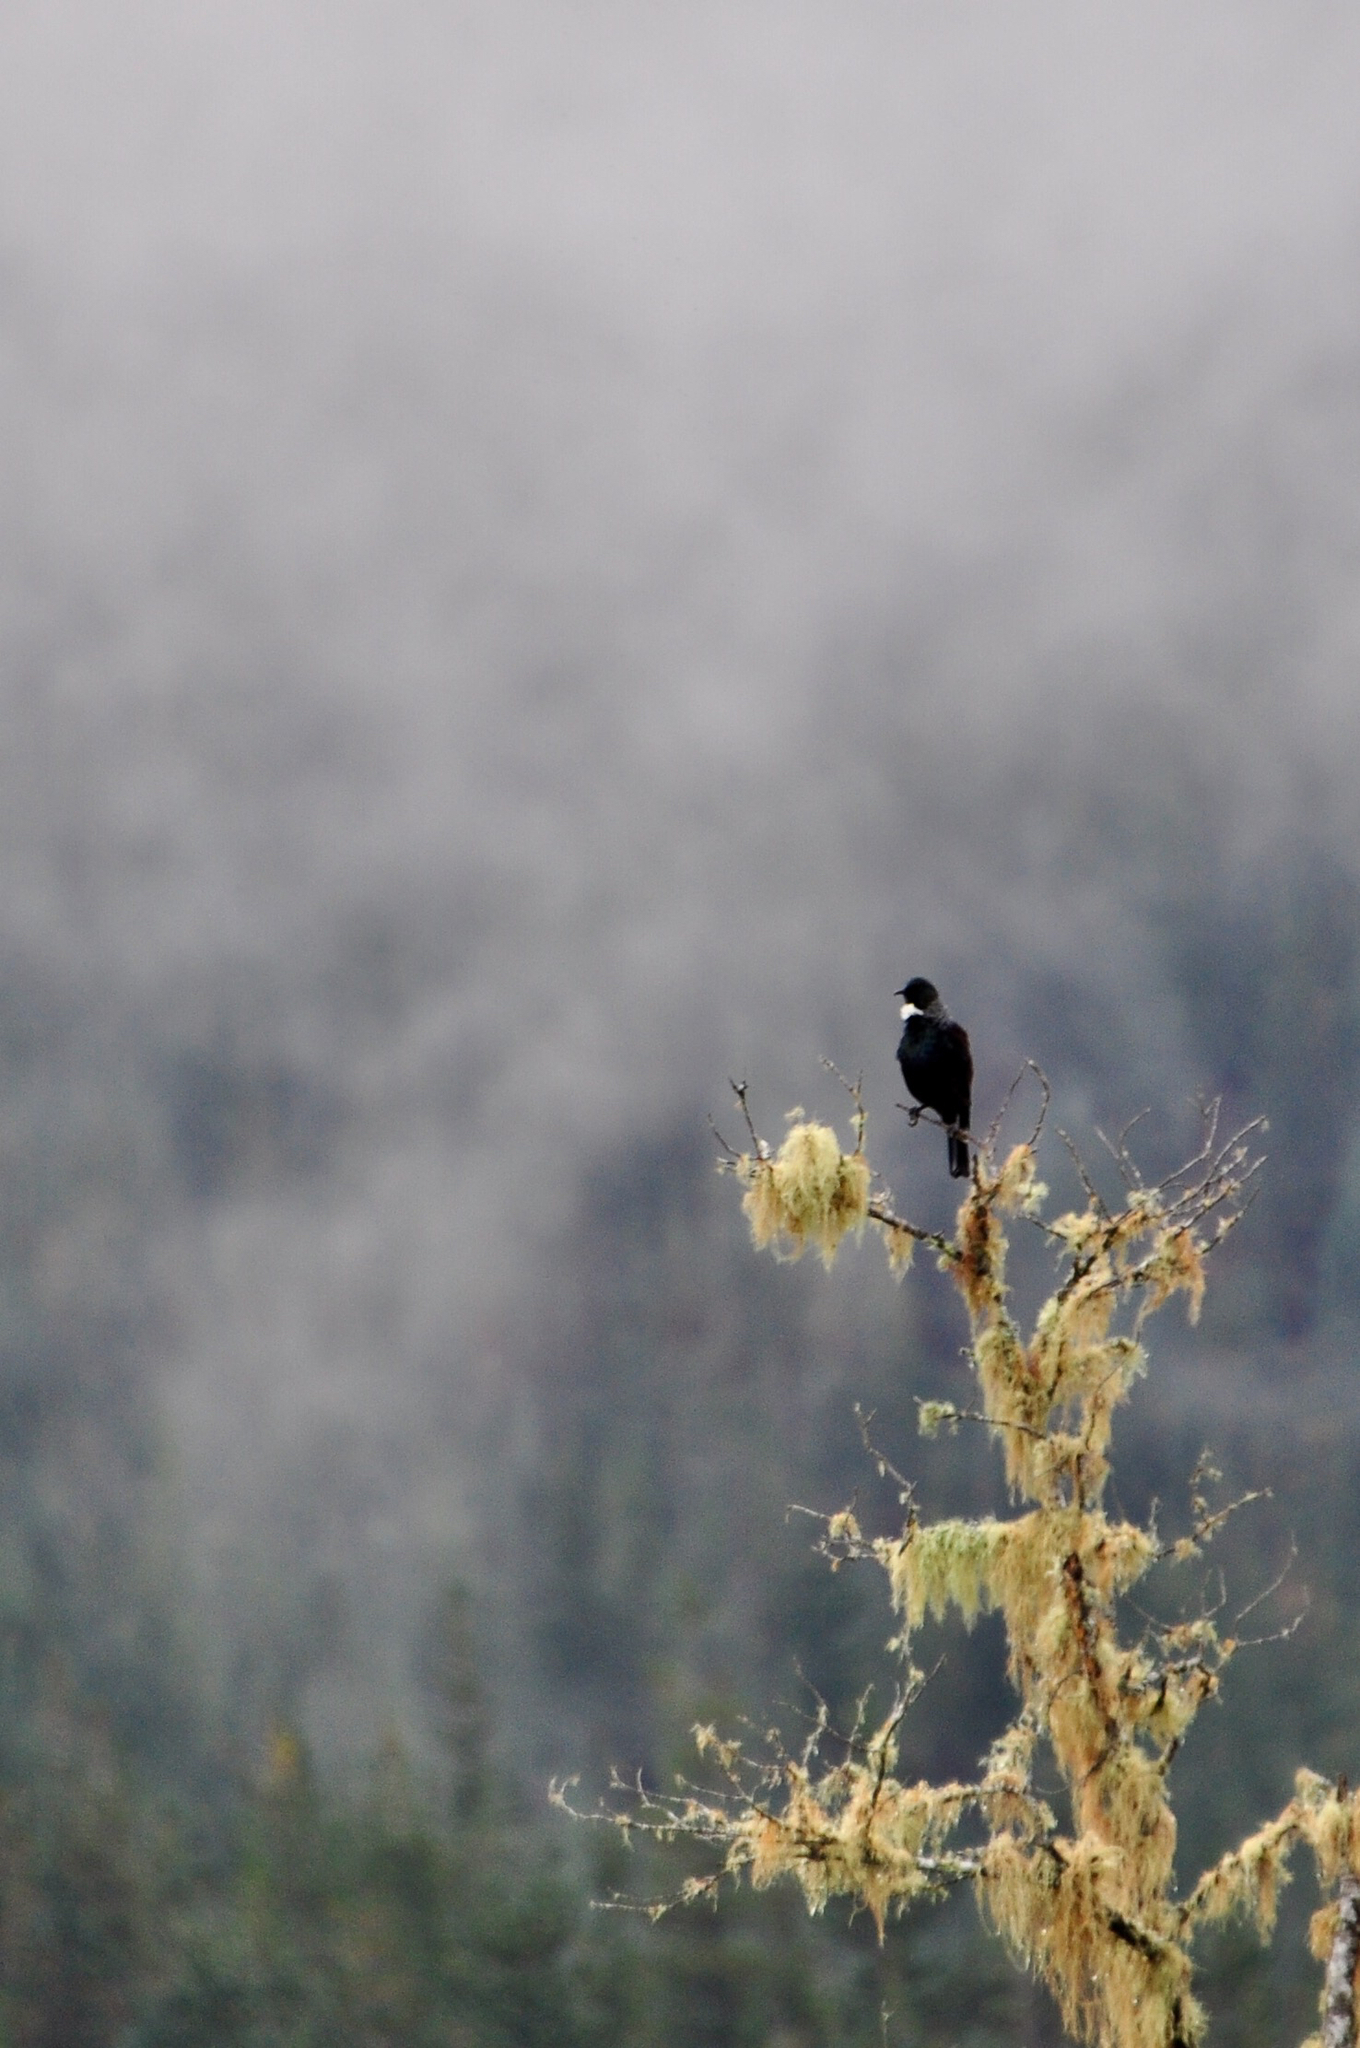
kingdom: Animalia
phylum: Chordata
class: Aves
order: Passeriformes
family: Meliphagidae
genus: Prosthemadera
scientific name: Prosthemadera novaeseelandiae
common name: Tui
